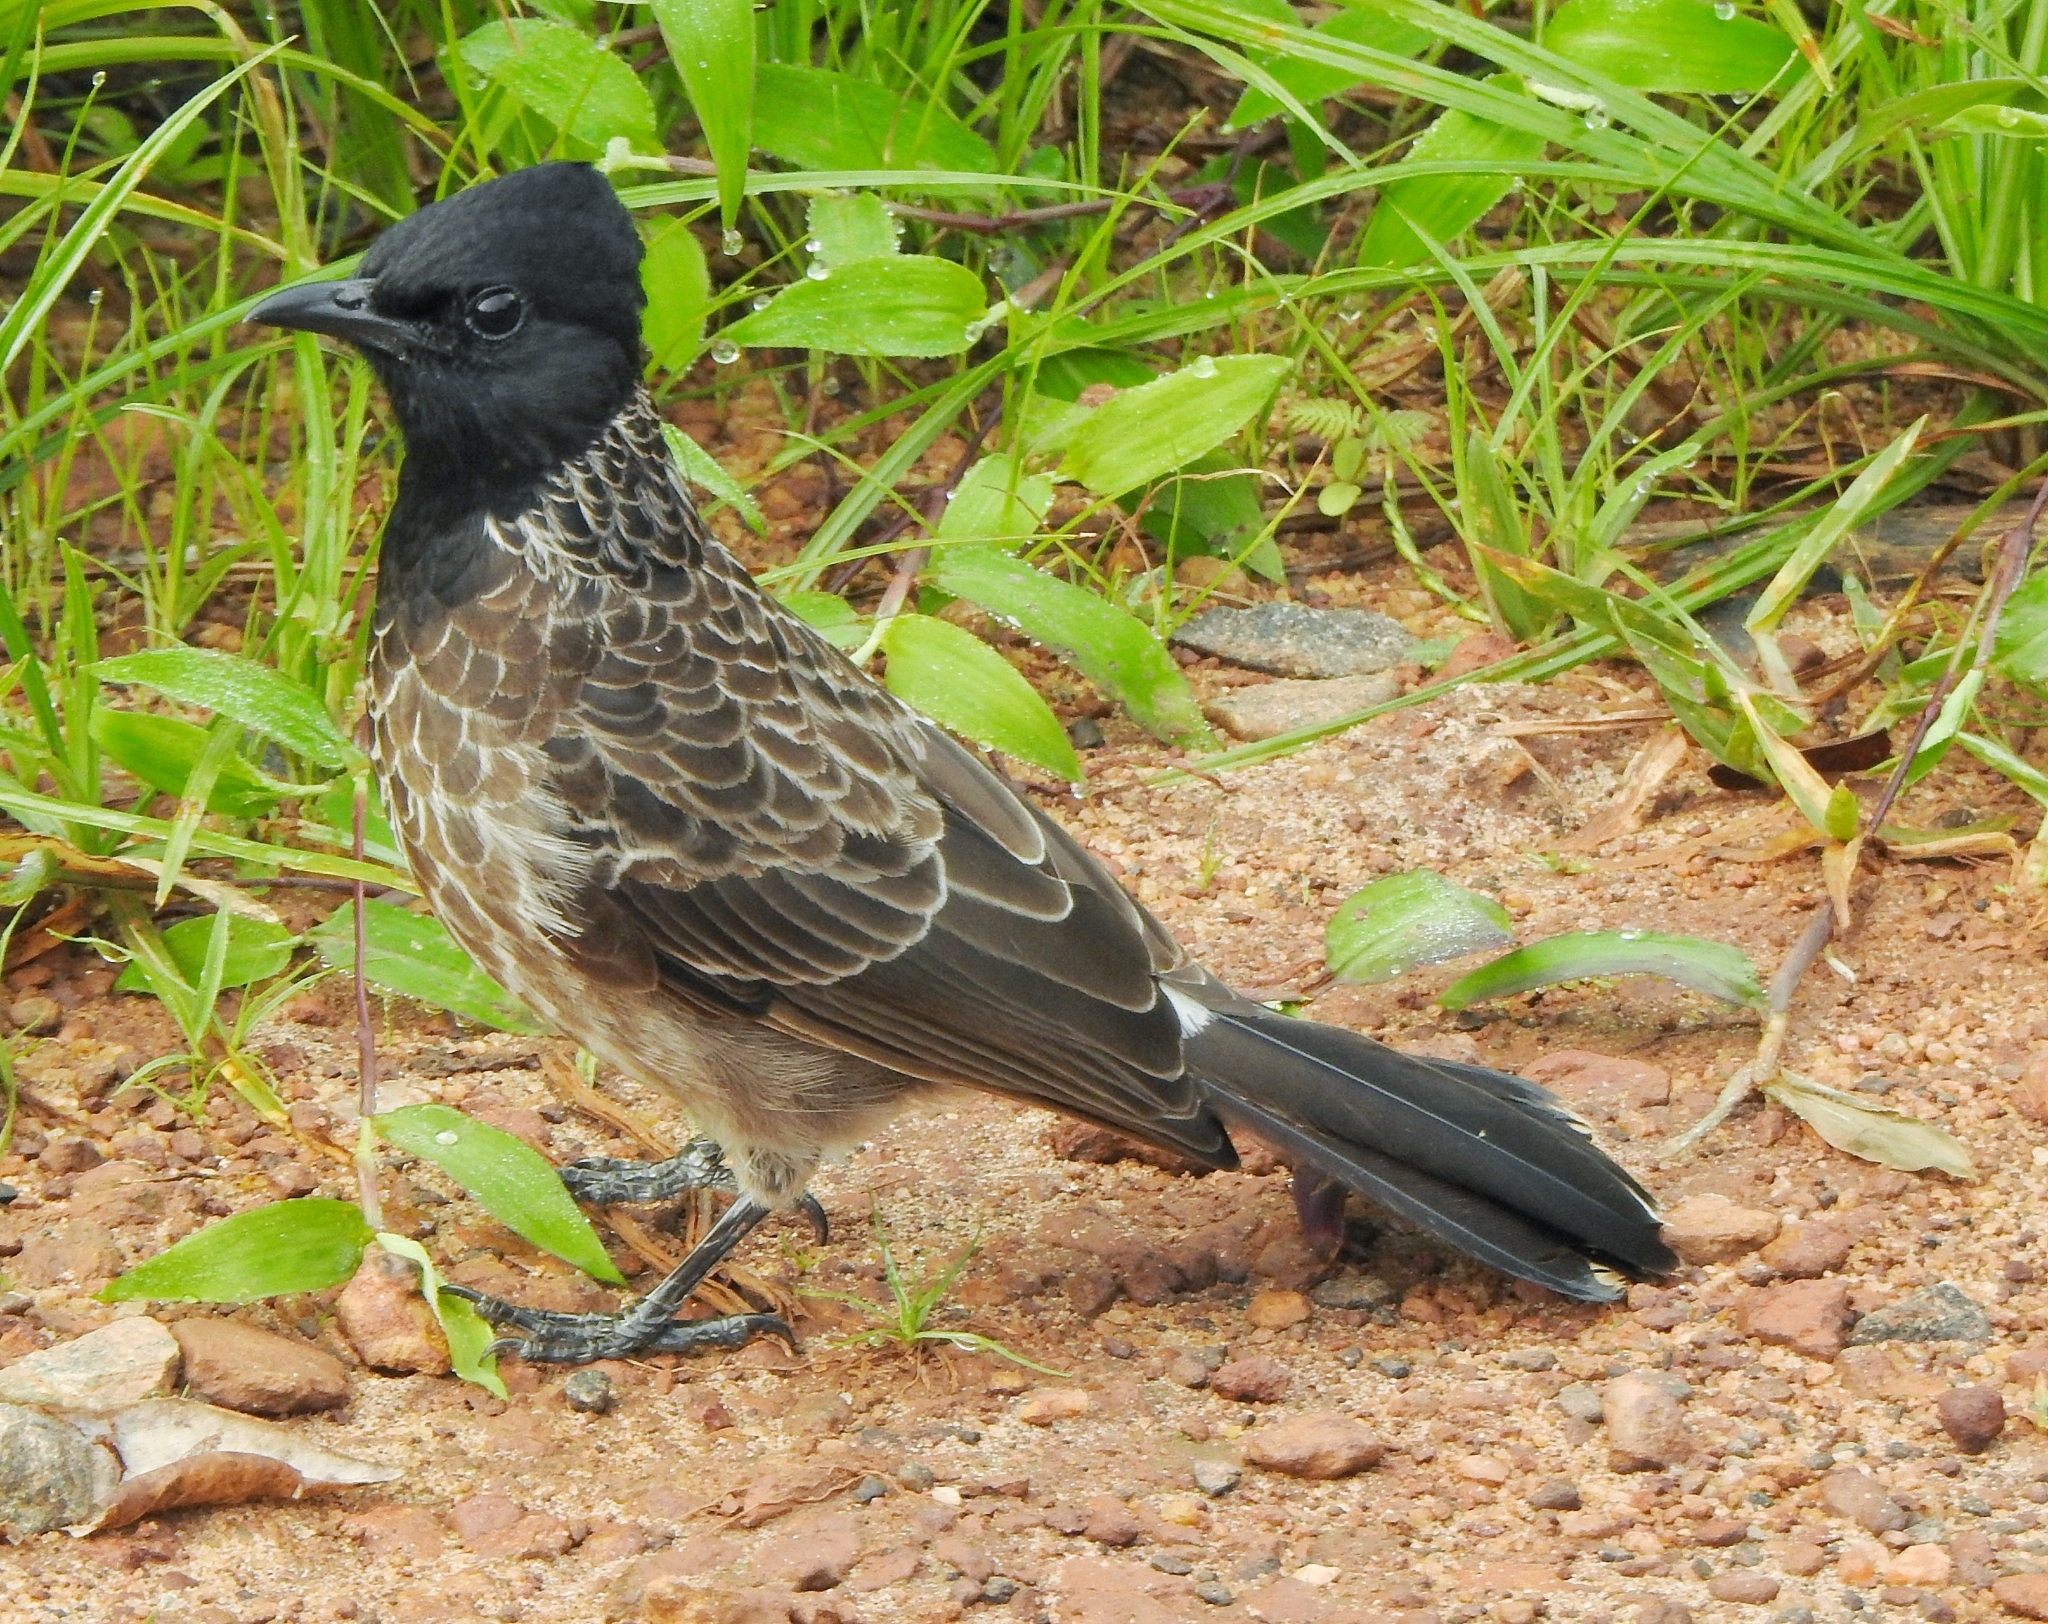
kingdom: Animalia
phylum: Chordata
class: Aves
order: Passeriformes
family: Pycnonotidae
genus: Pycnonotus
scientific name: Pycnonotus cafer
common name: Red-vented bulbul
